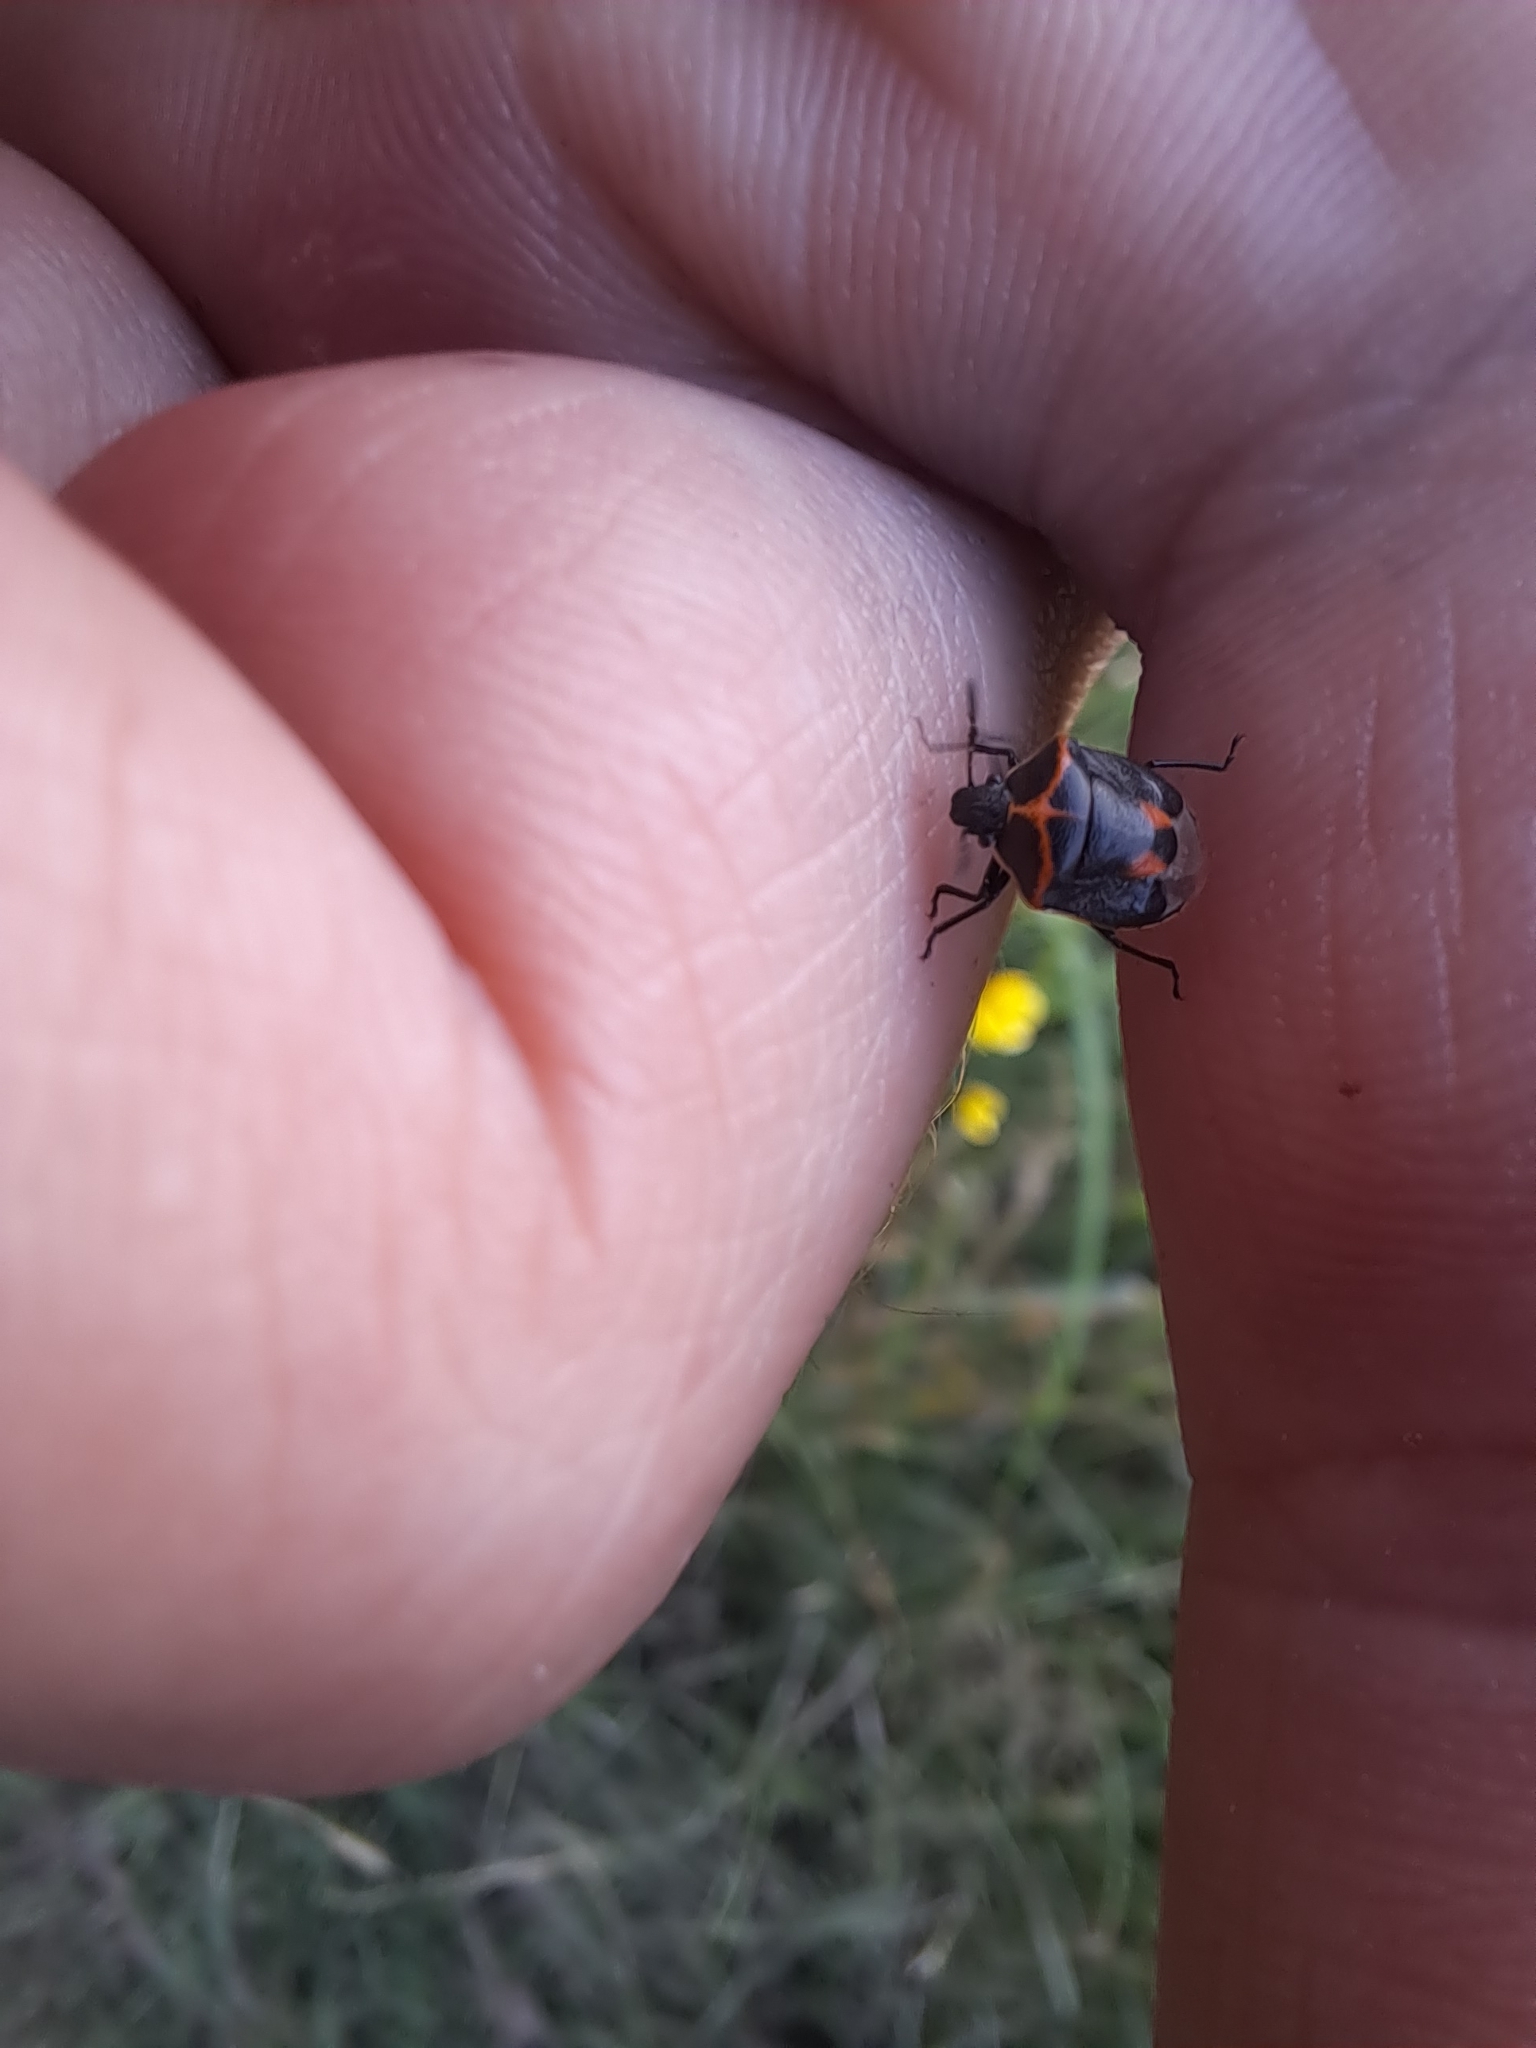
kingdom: Animalia
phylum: Arthropoda
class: Insecta
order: Hemiptera
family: Pentatomidae
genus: Cosmopepla
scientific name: Cosmopepla lintneriana
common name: Twice-stabbed stink bug
